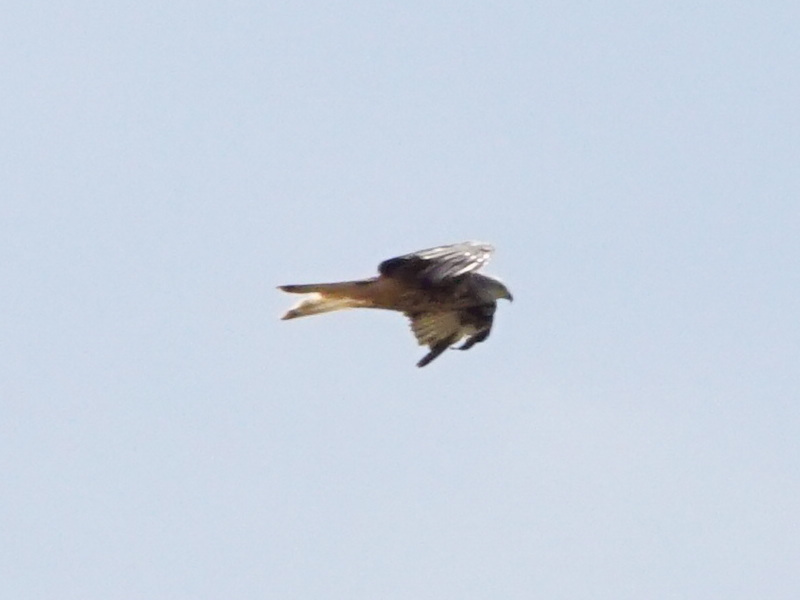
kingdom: Animalia
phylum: Chordata
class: Aves
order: Accipitriformes
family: Accipitridae
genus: Milvus
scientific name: Milvus milvus
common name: Red kite
